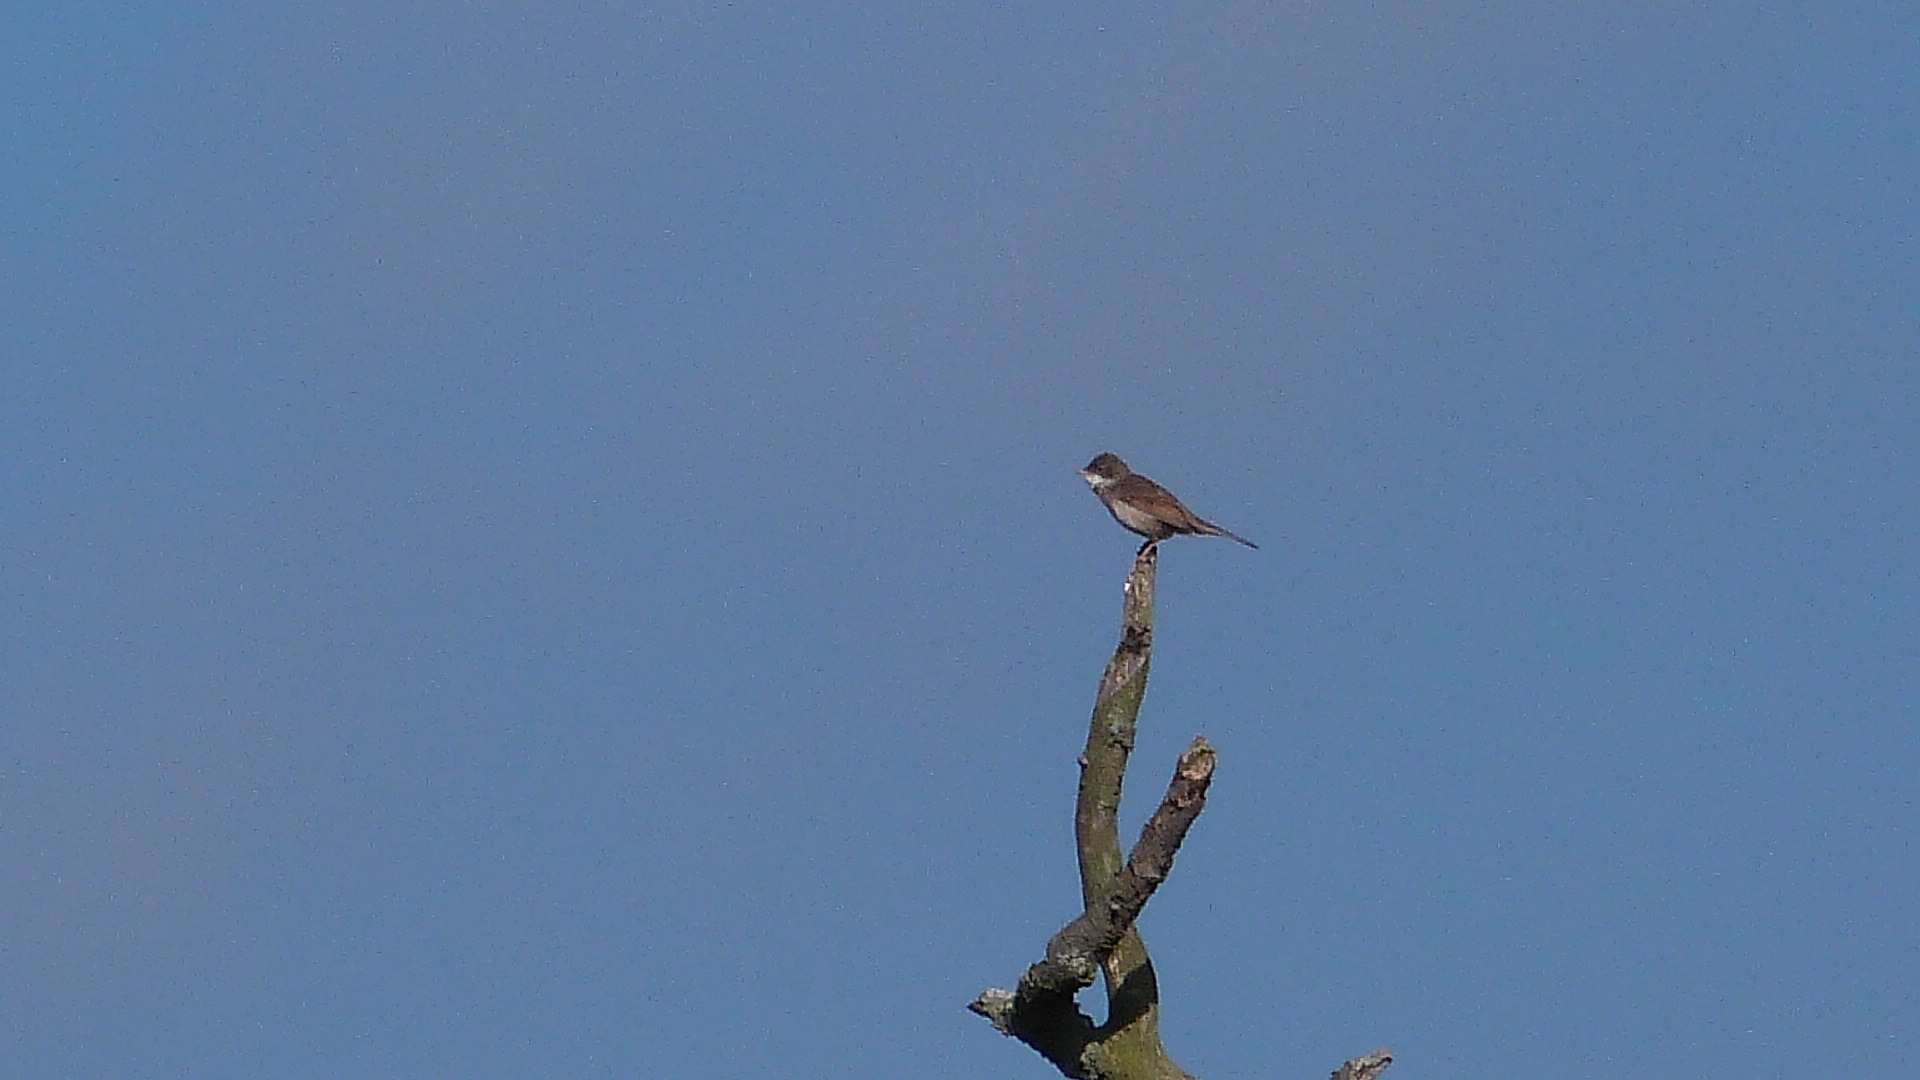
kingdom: Animalia
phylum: Chordata
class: Aves
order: Passeriformes
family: Sylviidae
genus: Sylvia
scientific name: Sylvia communis
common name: Common whitethroat
